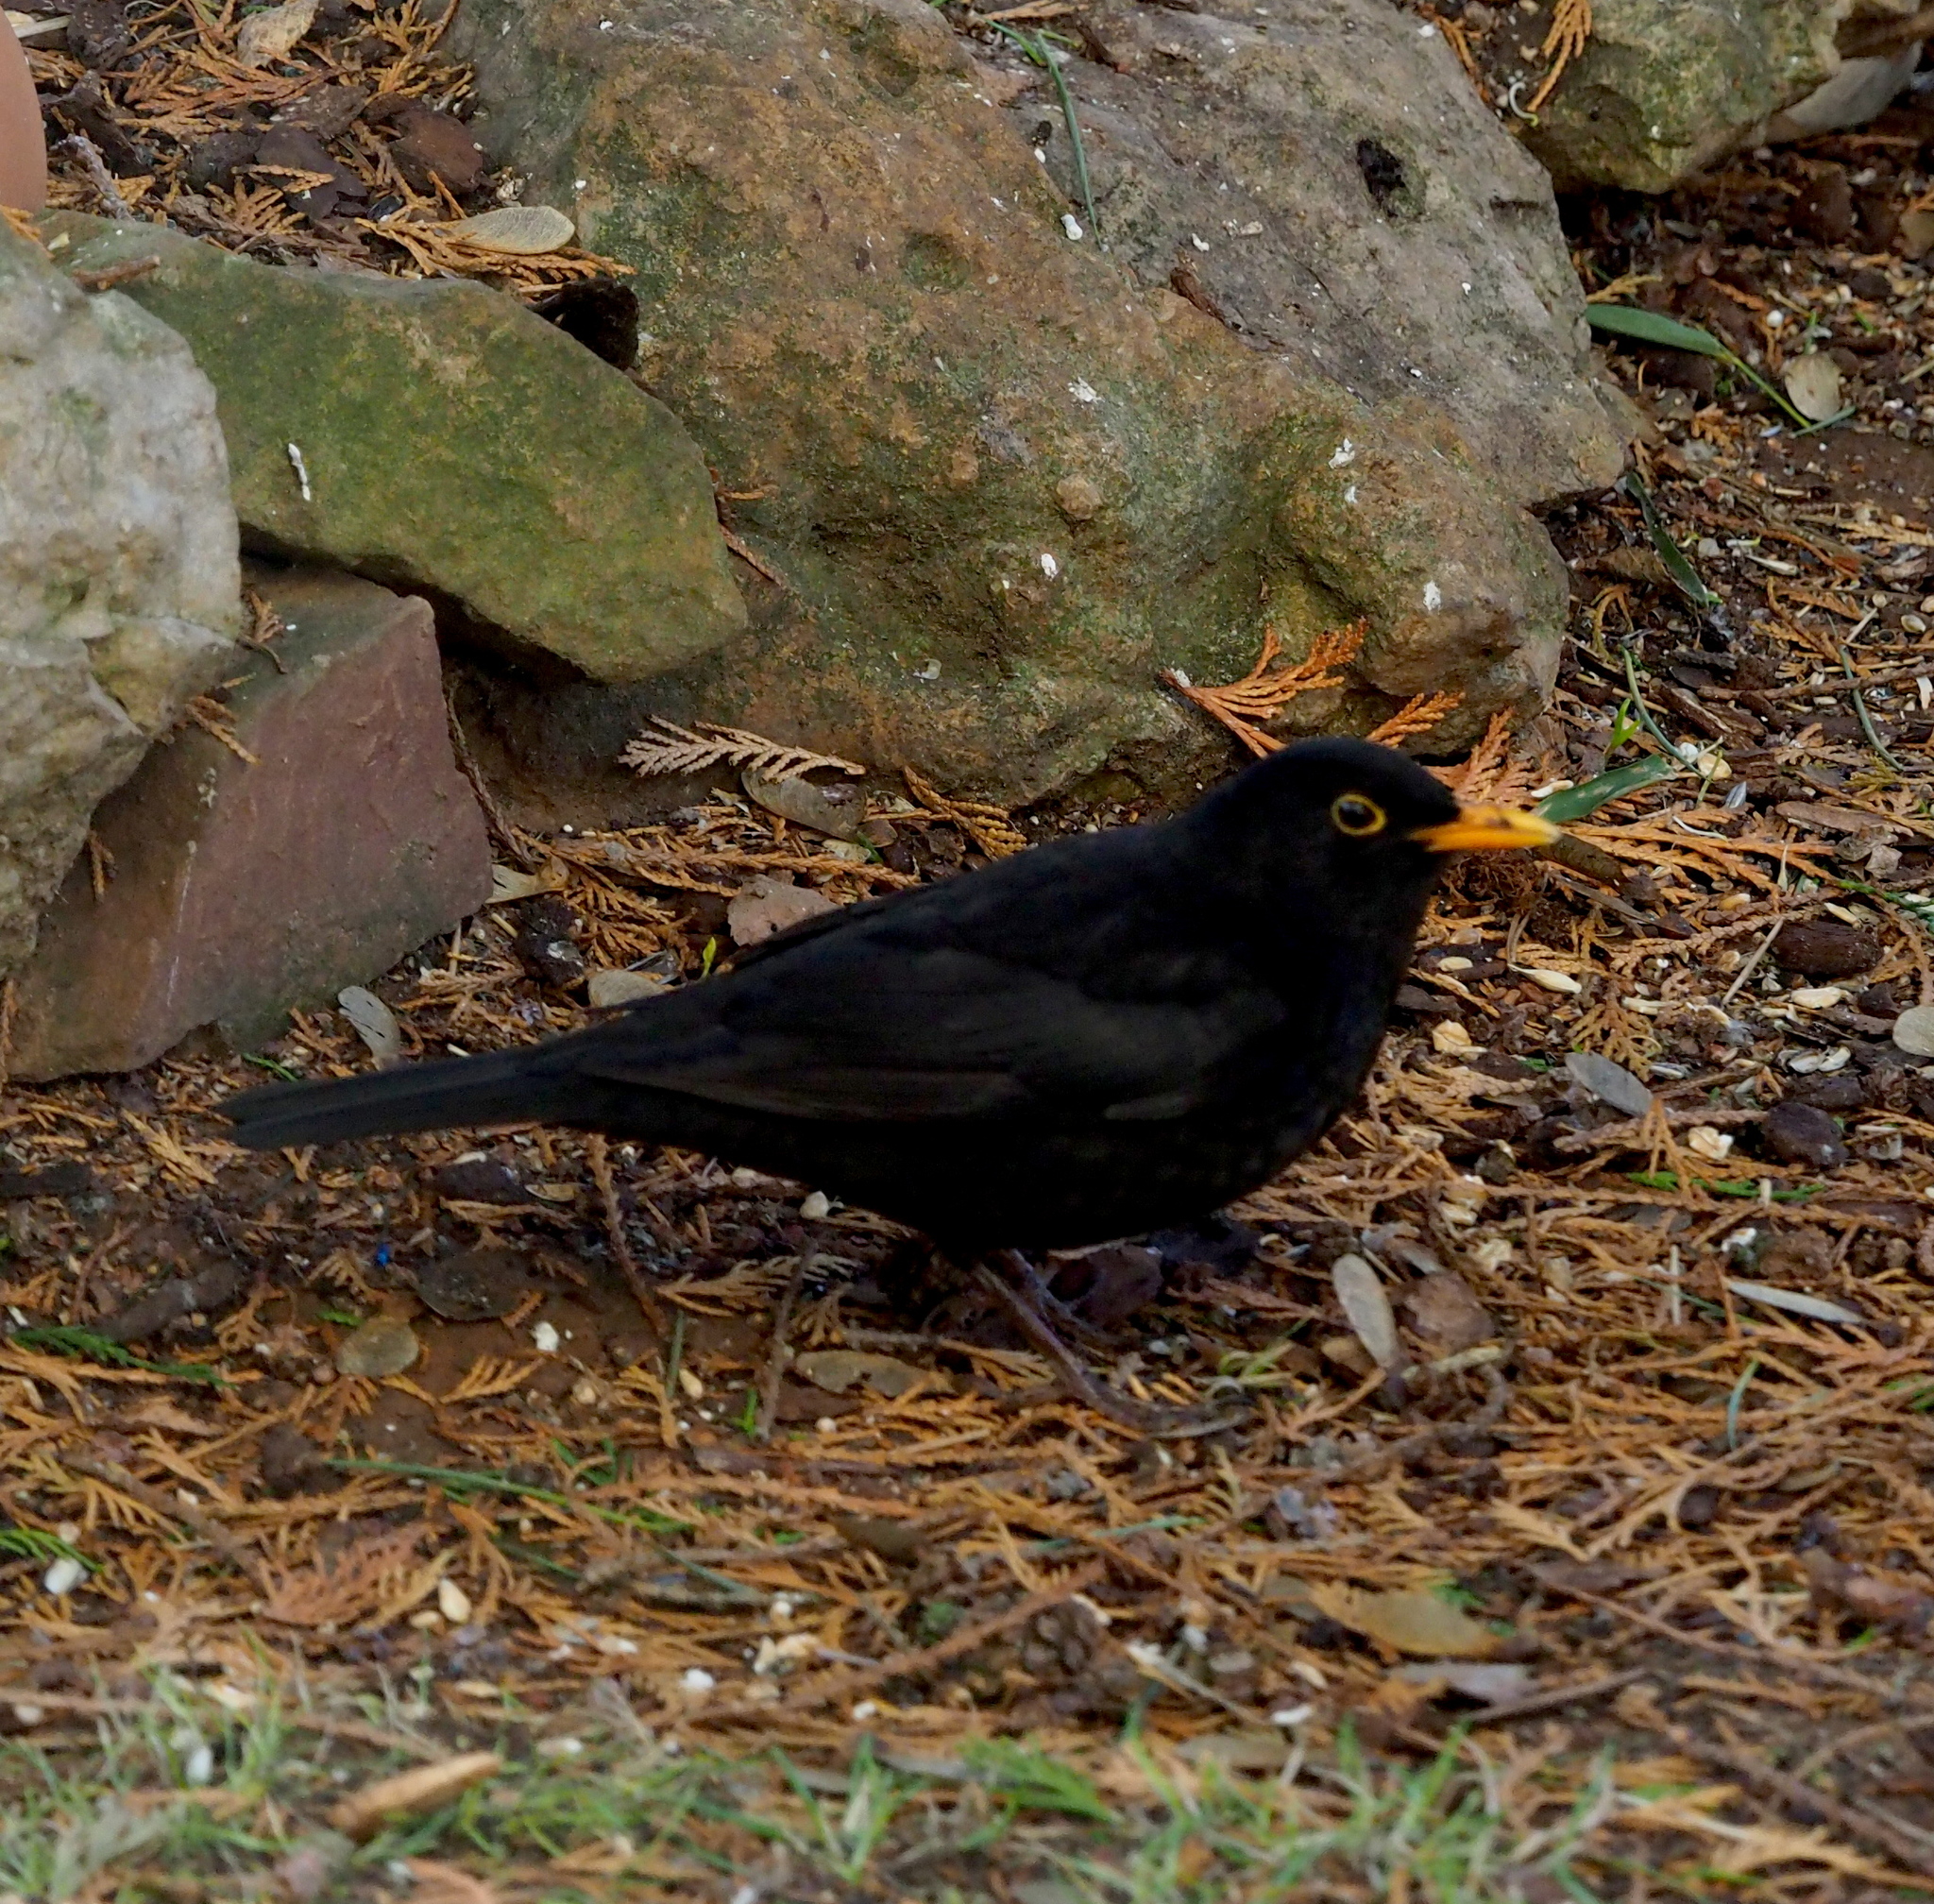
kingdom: Animalia
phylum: Chordata
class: Aves
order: Passeriformes
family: Turdidae
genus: Turdus
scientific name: Turdus merula
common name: Common blackbird
